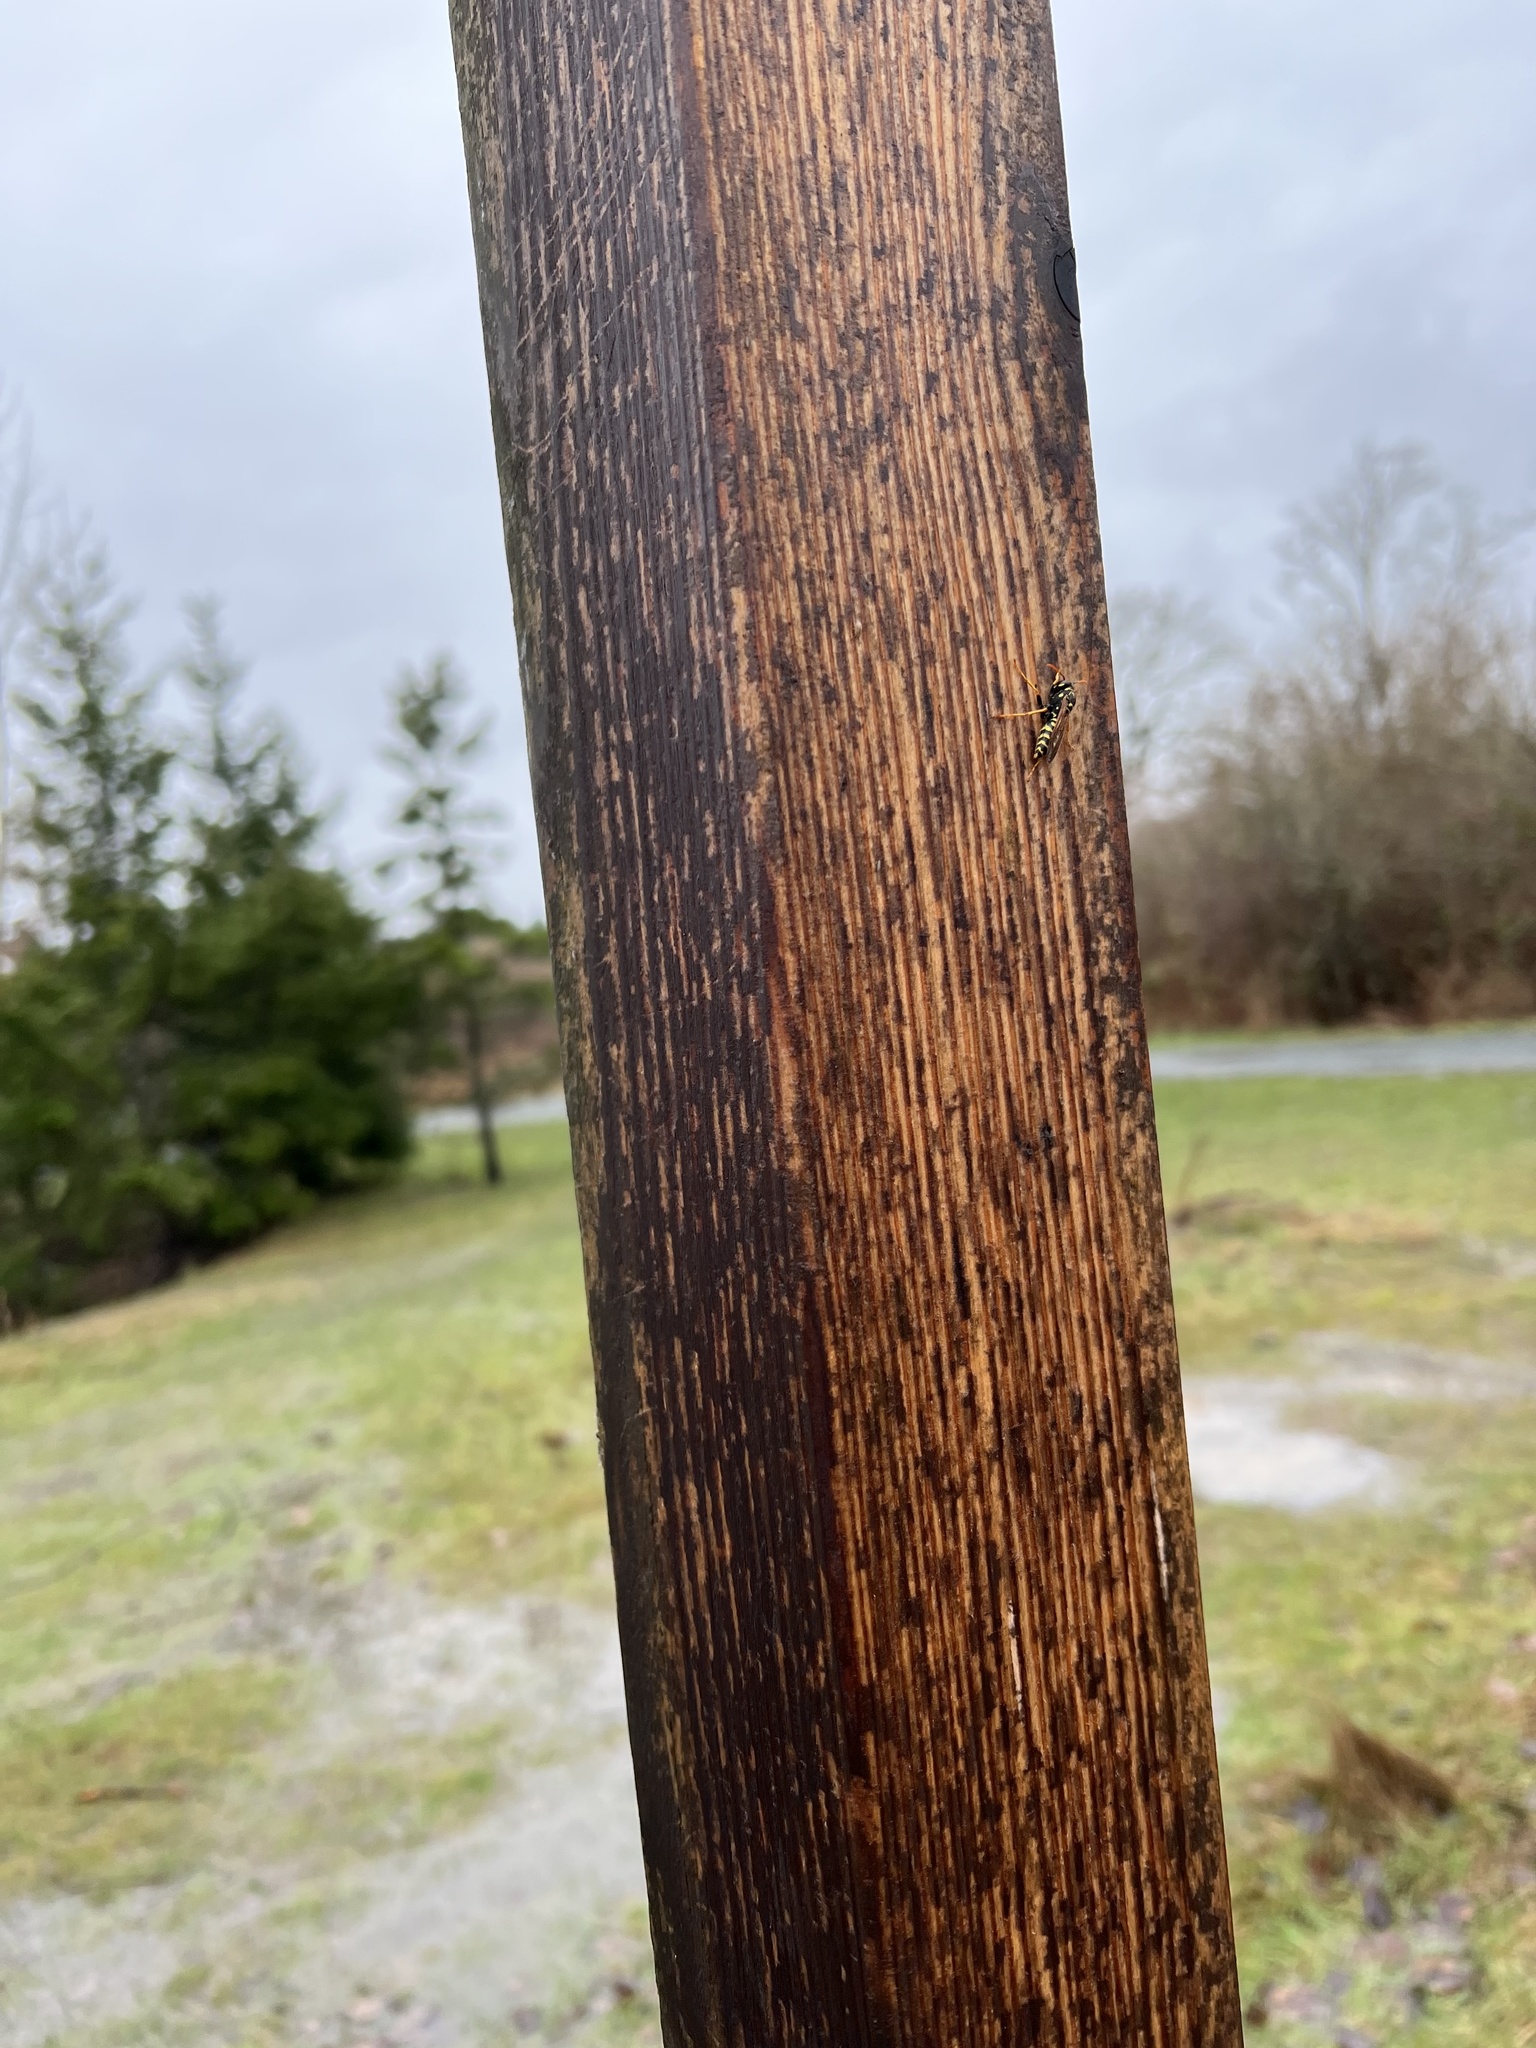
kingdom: Animalia
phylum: Arthropoda
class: Insecta
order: Hymenoptera
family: Eumenidae
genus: Polistes
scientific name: Polistes dominula
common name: Paper wasp
